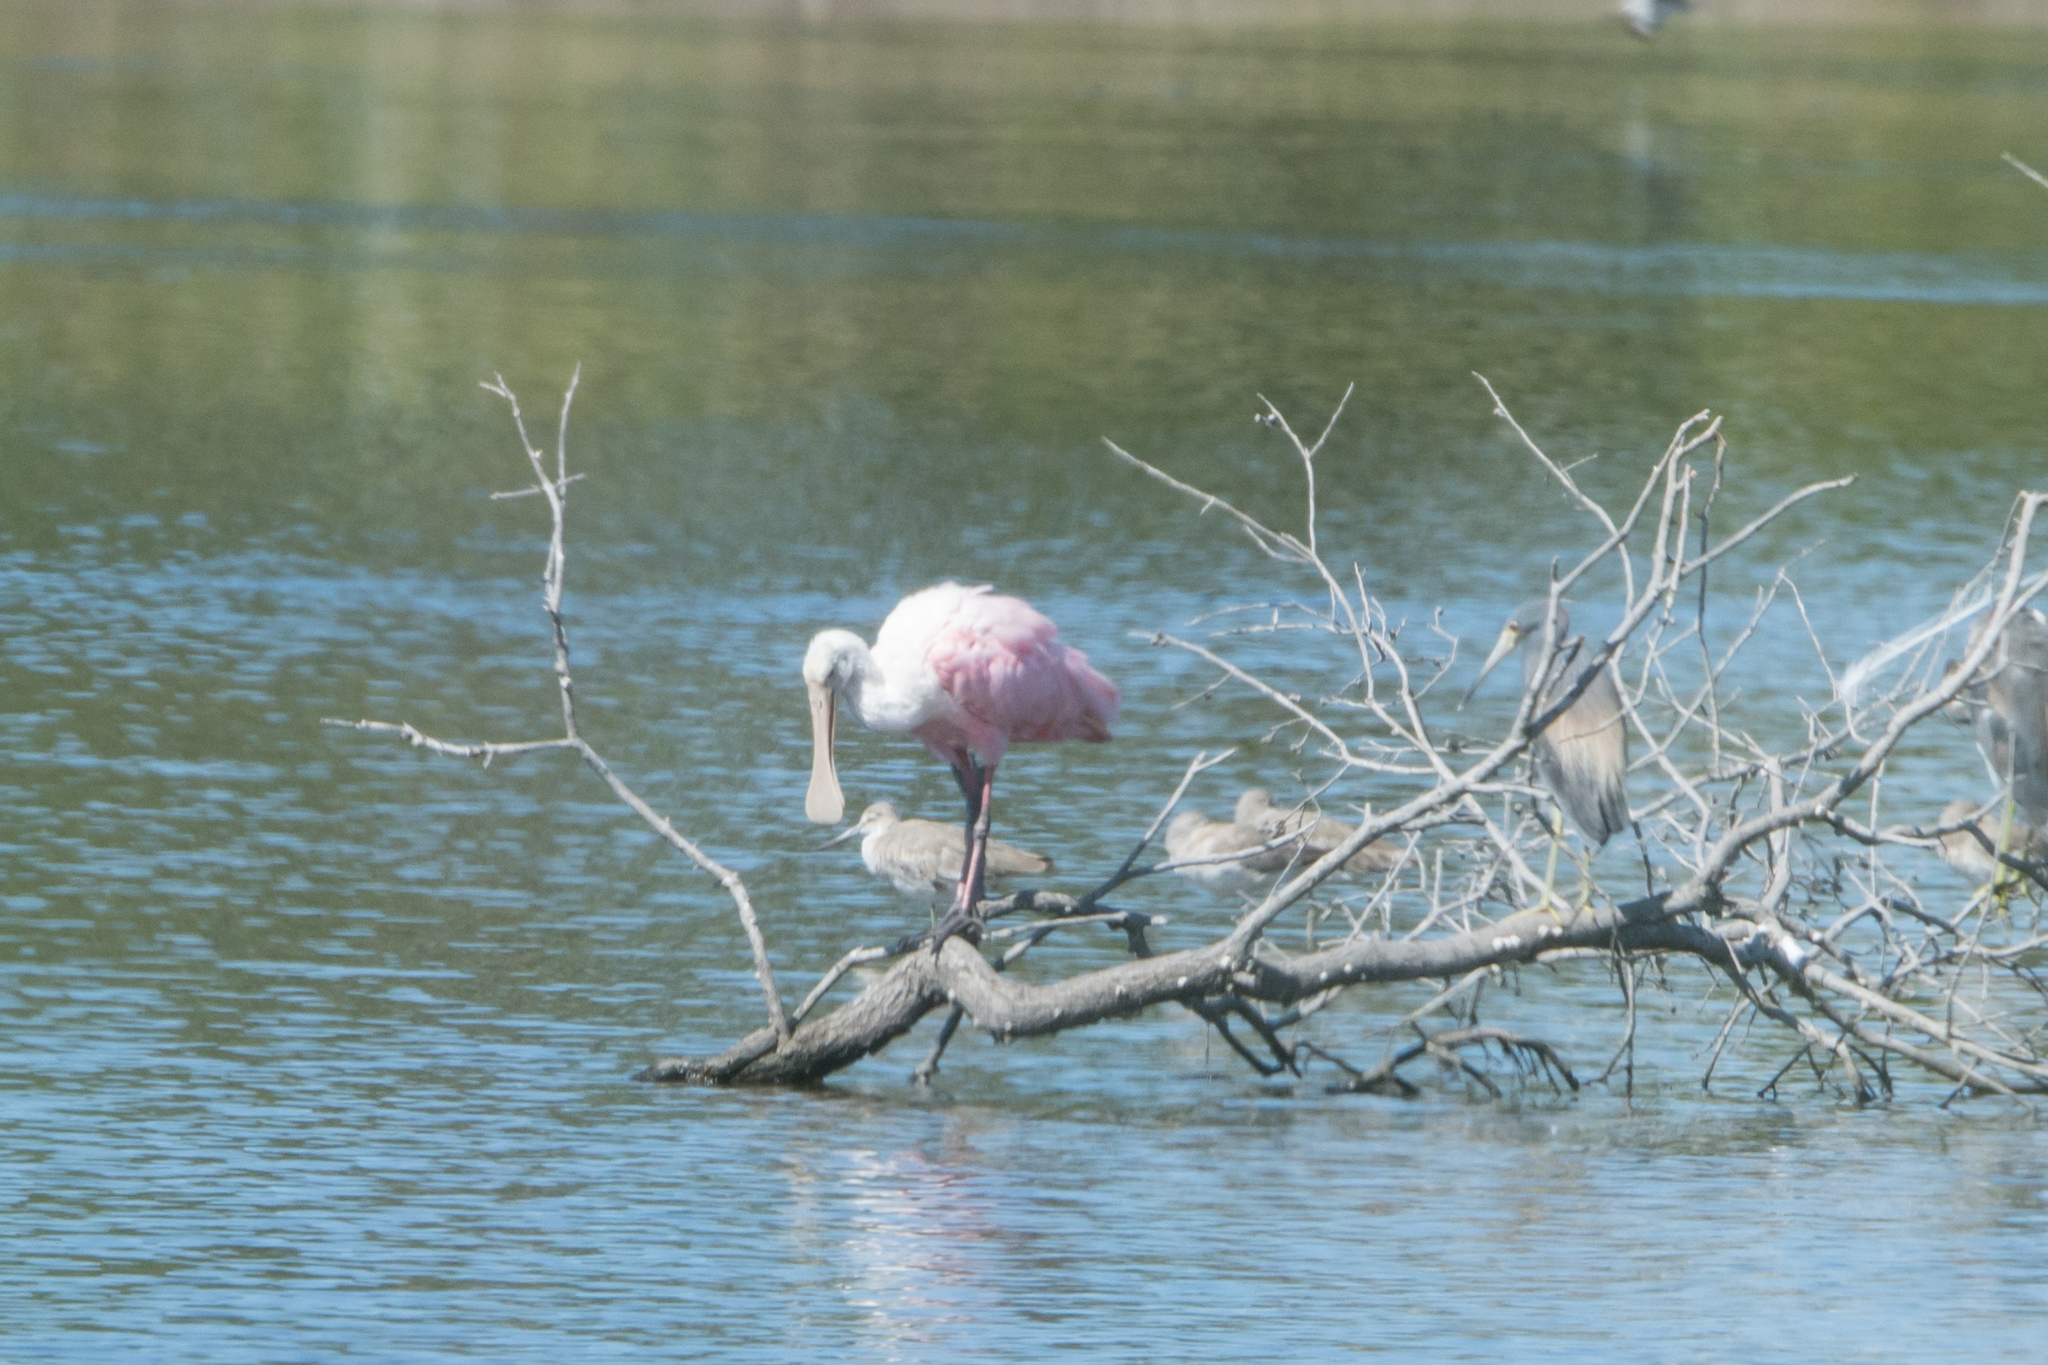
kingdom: Animalia
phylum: Chordata
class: Aves
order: Pelecaniformes
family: Threskiornithidae
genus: Platalea
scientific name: Platalea ajaja
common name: Roseate spoonbill
